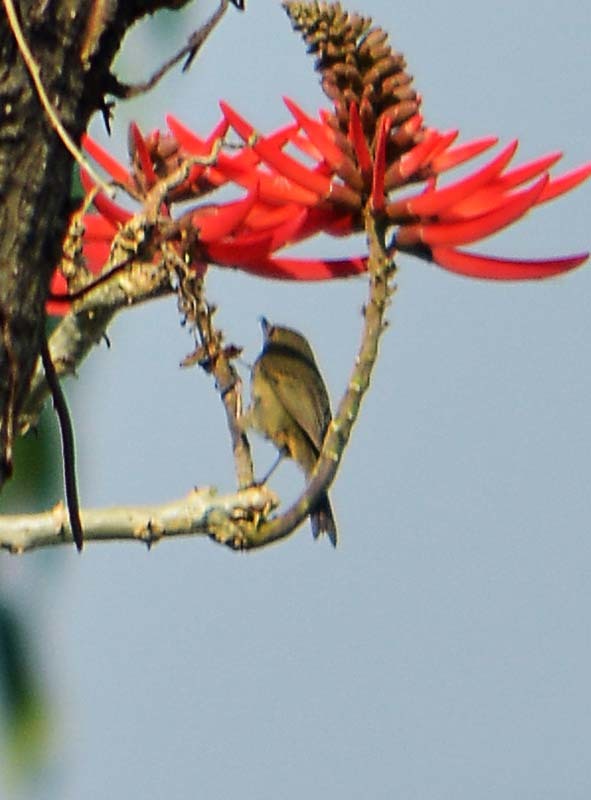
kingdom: Animalia
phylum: Chordata
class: Aves
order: Passeriformes
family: Thraupidae
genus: Diglossa
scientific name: Diglossa baritula
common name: Cinnamon-bellied flowerpiercer
